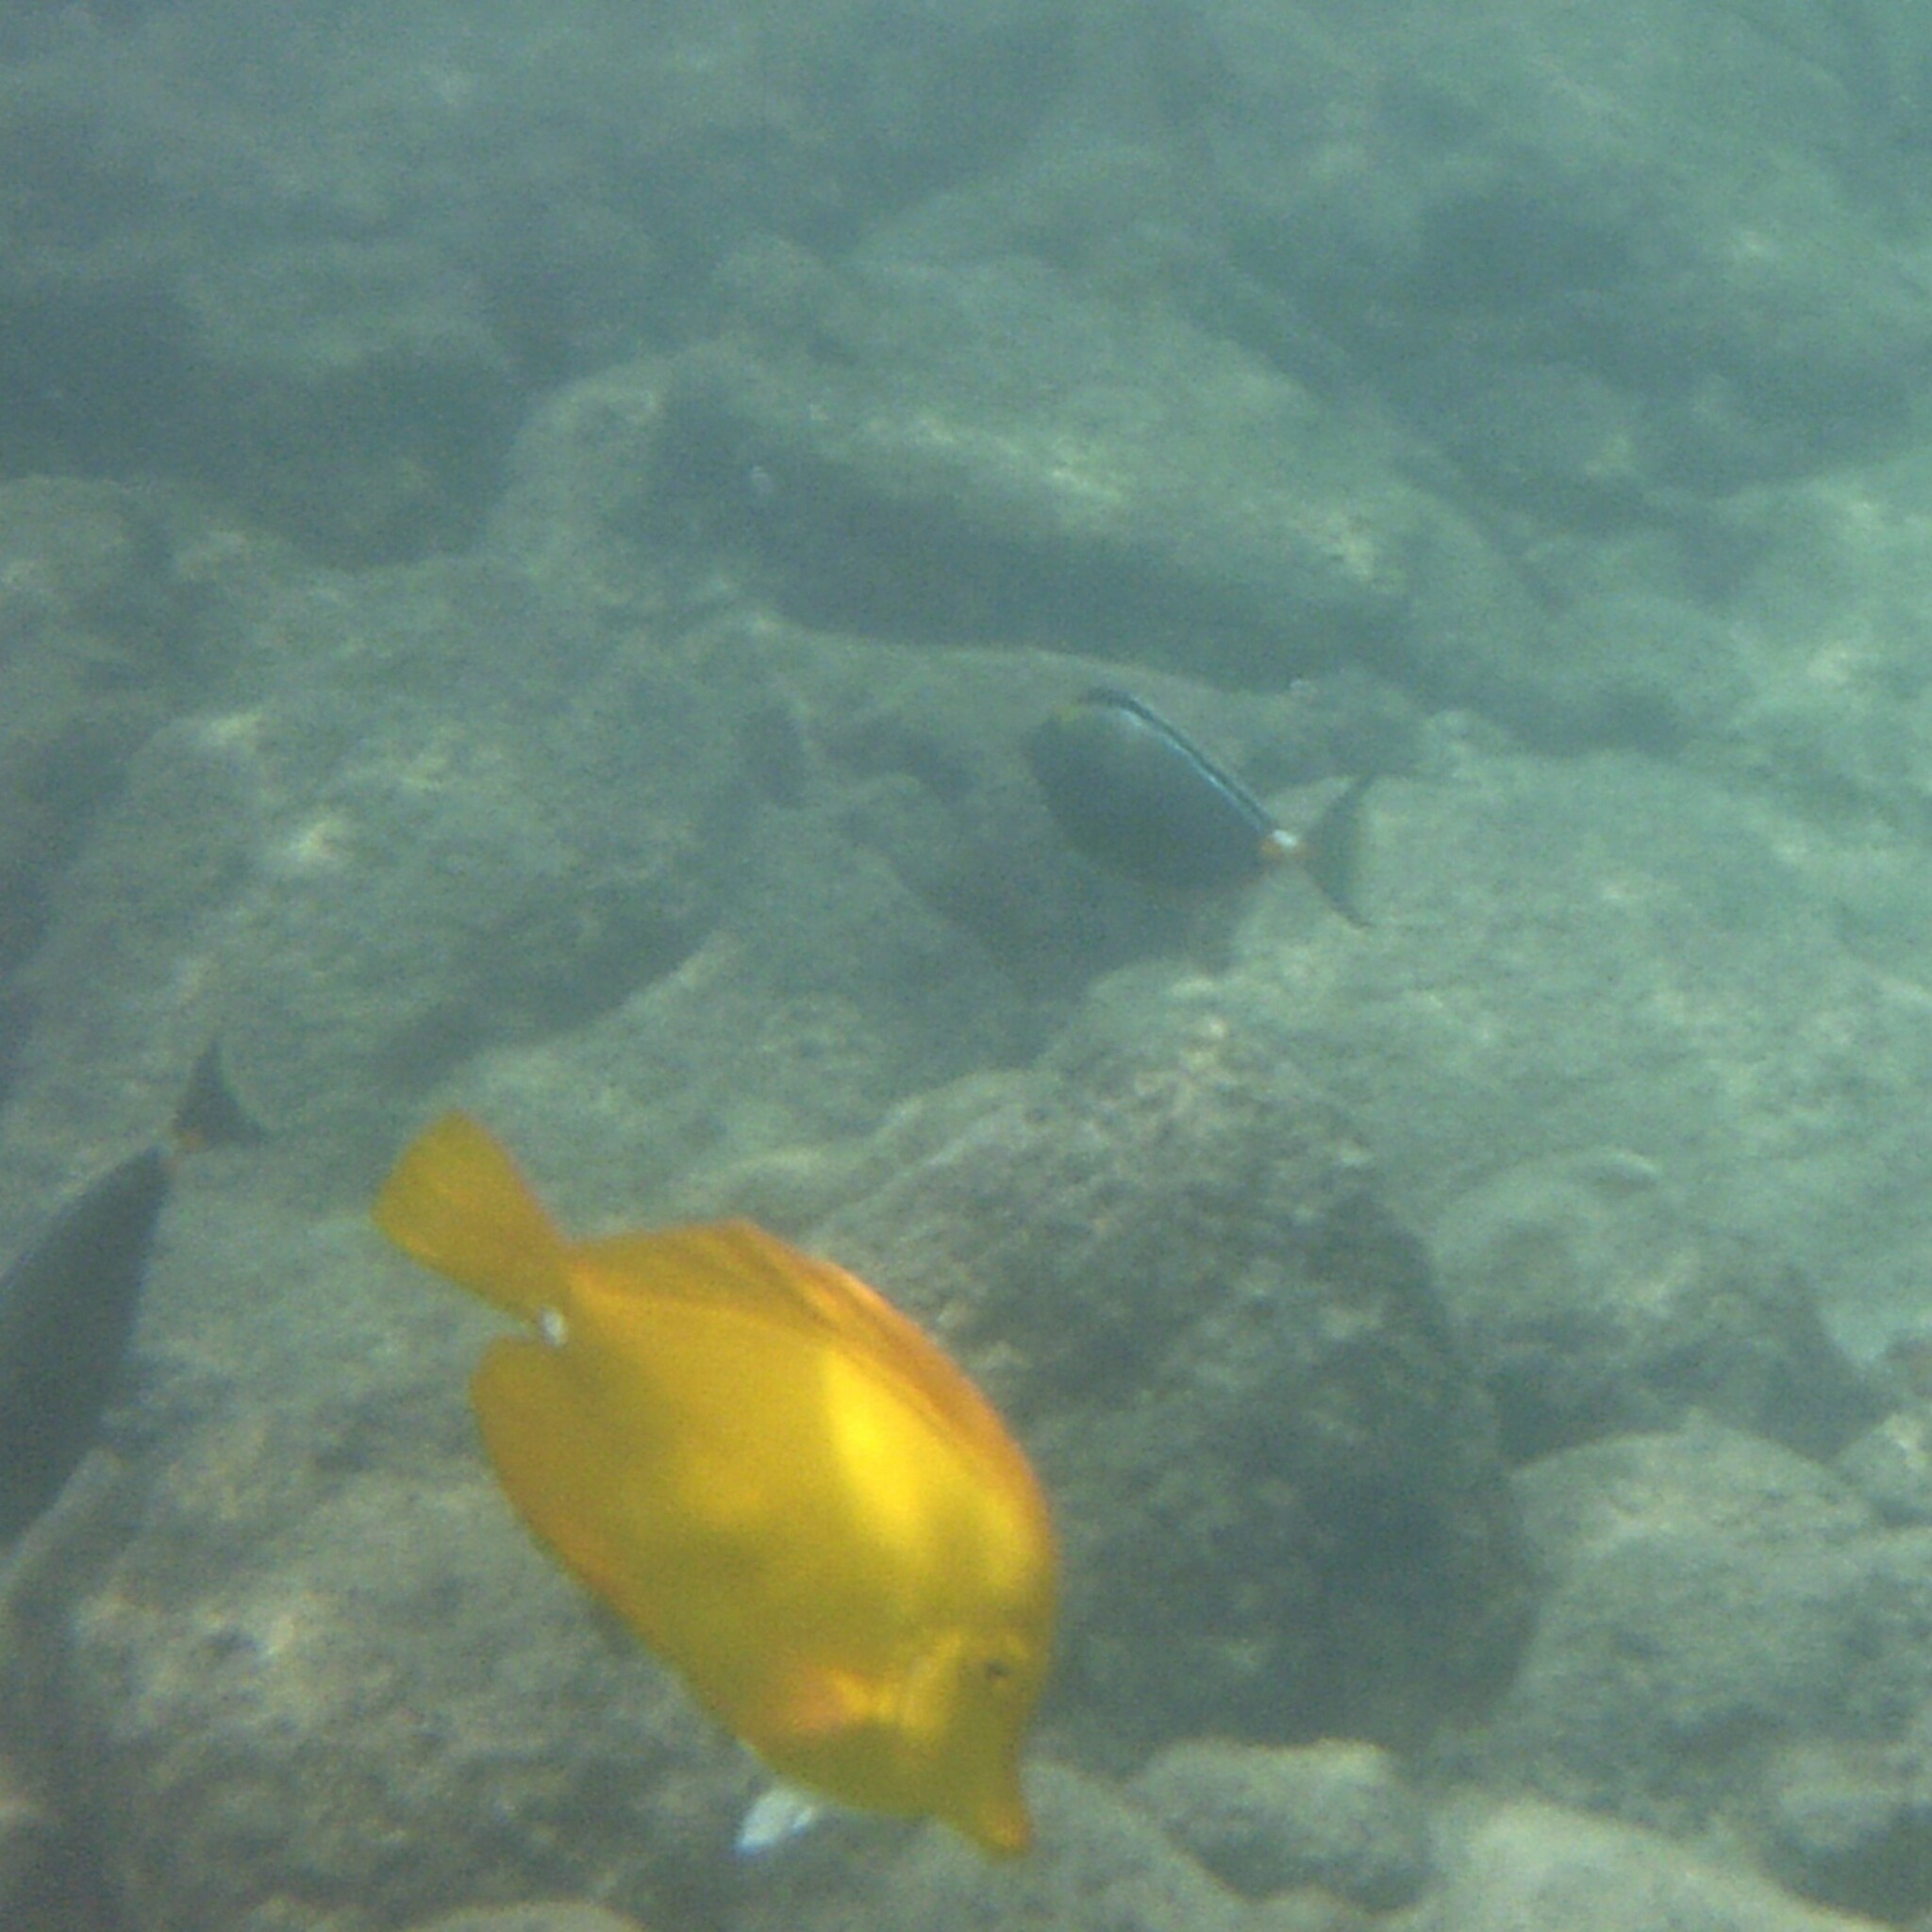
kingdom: Animalia
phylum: Chordata
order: Perciformes
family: Acanthuridae
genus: Zebrasoma
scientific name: Zebrasoma flavescens
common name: Yellow tang
